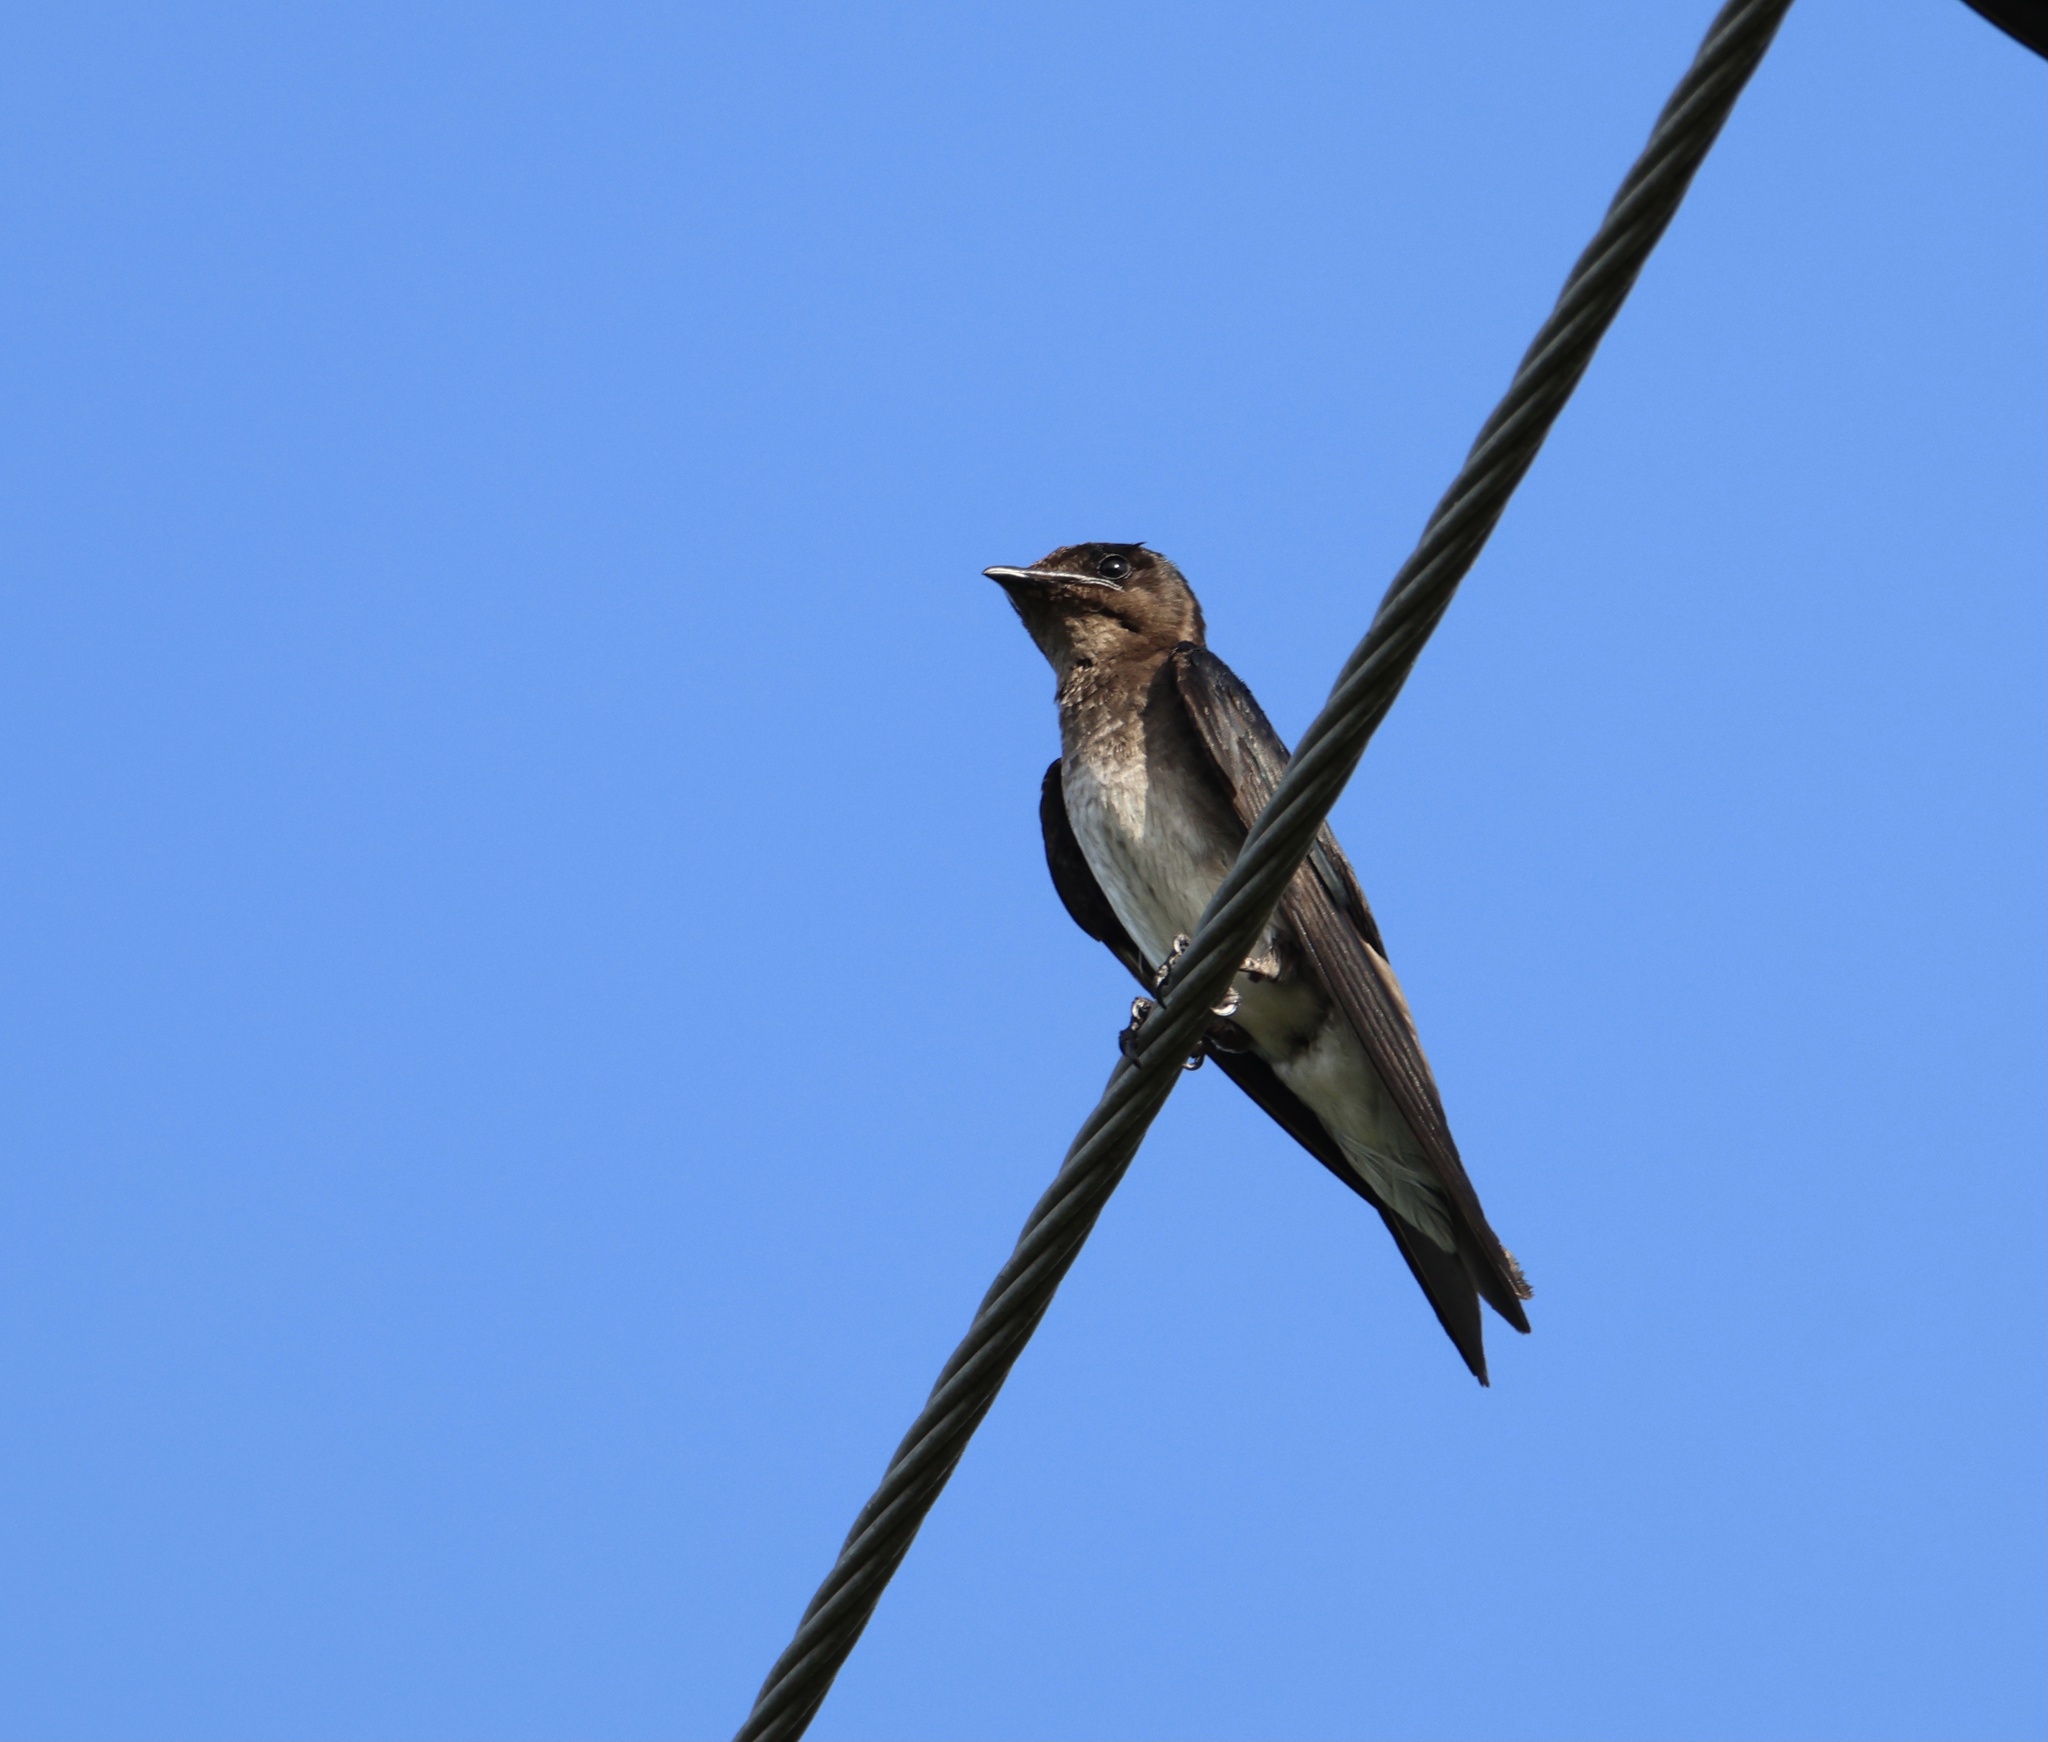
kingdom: Animalia
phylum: Chordata
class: Aves
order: Passeriformes
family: Hirundinidae
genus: Progne
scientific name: Progne chalybea
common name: Grey-breasted martin
